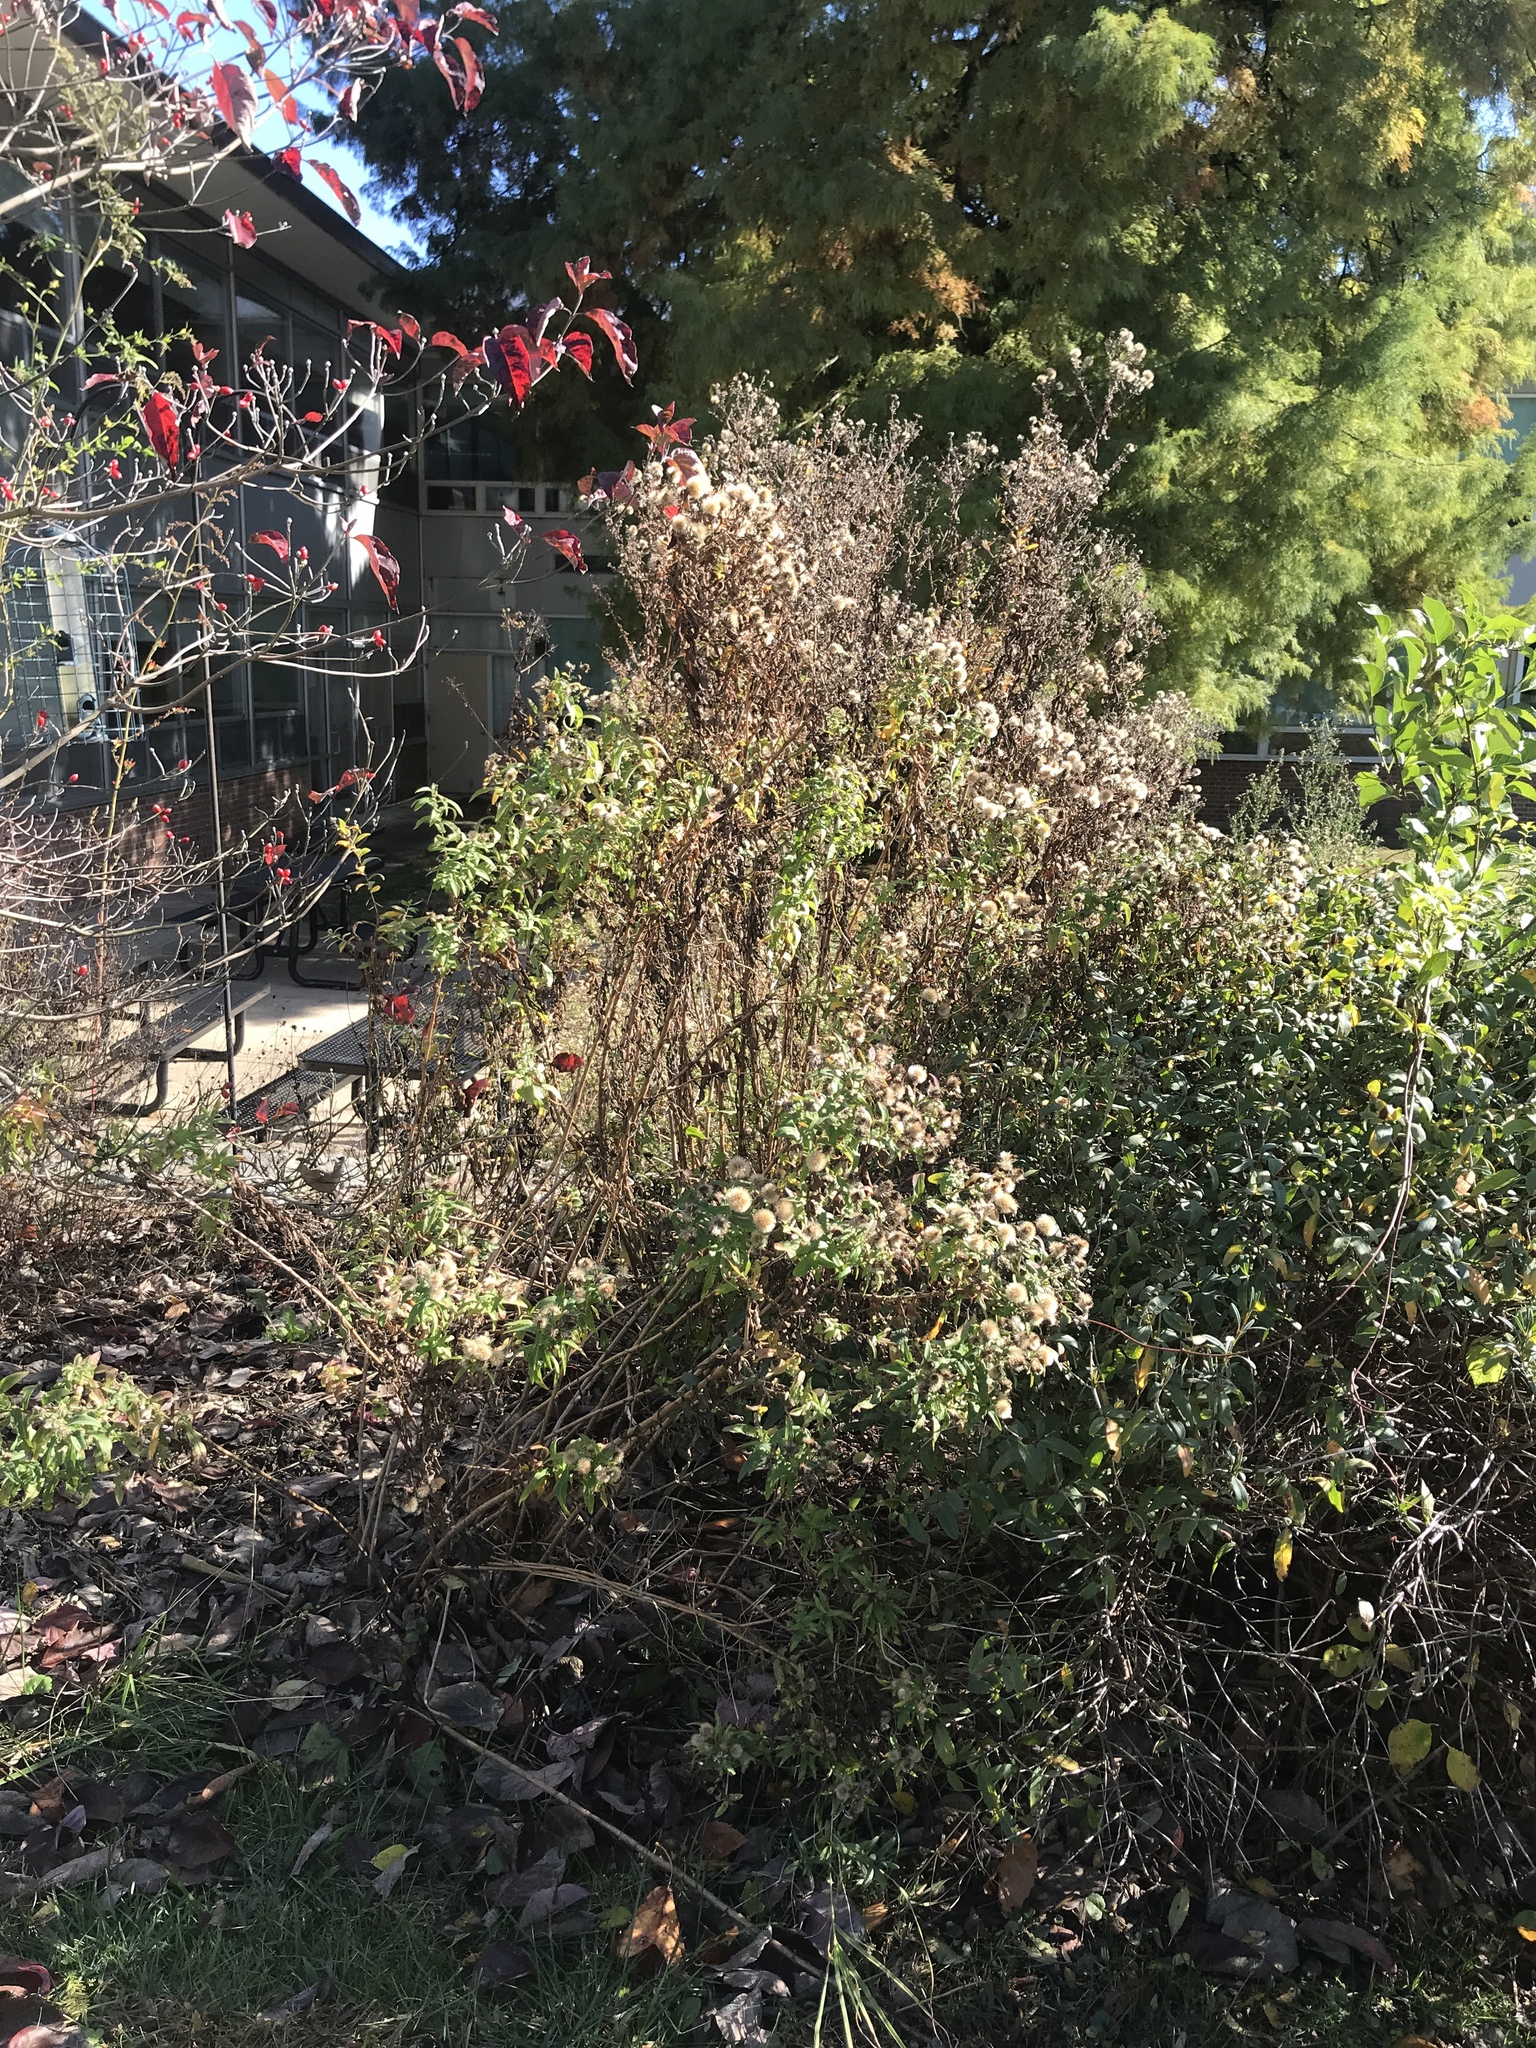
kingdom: Plantae
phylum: Tracheophyta
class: Magnoliopsida
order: Asterales
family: Asteraceae
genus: Symphyotrichum
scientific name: Symphyotrichum novae-angliae
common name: Michaelmas daisy
